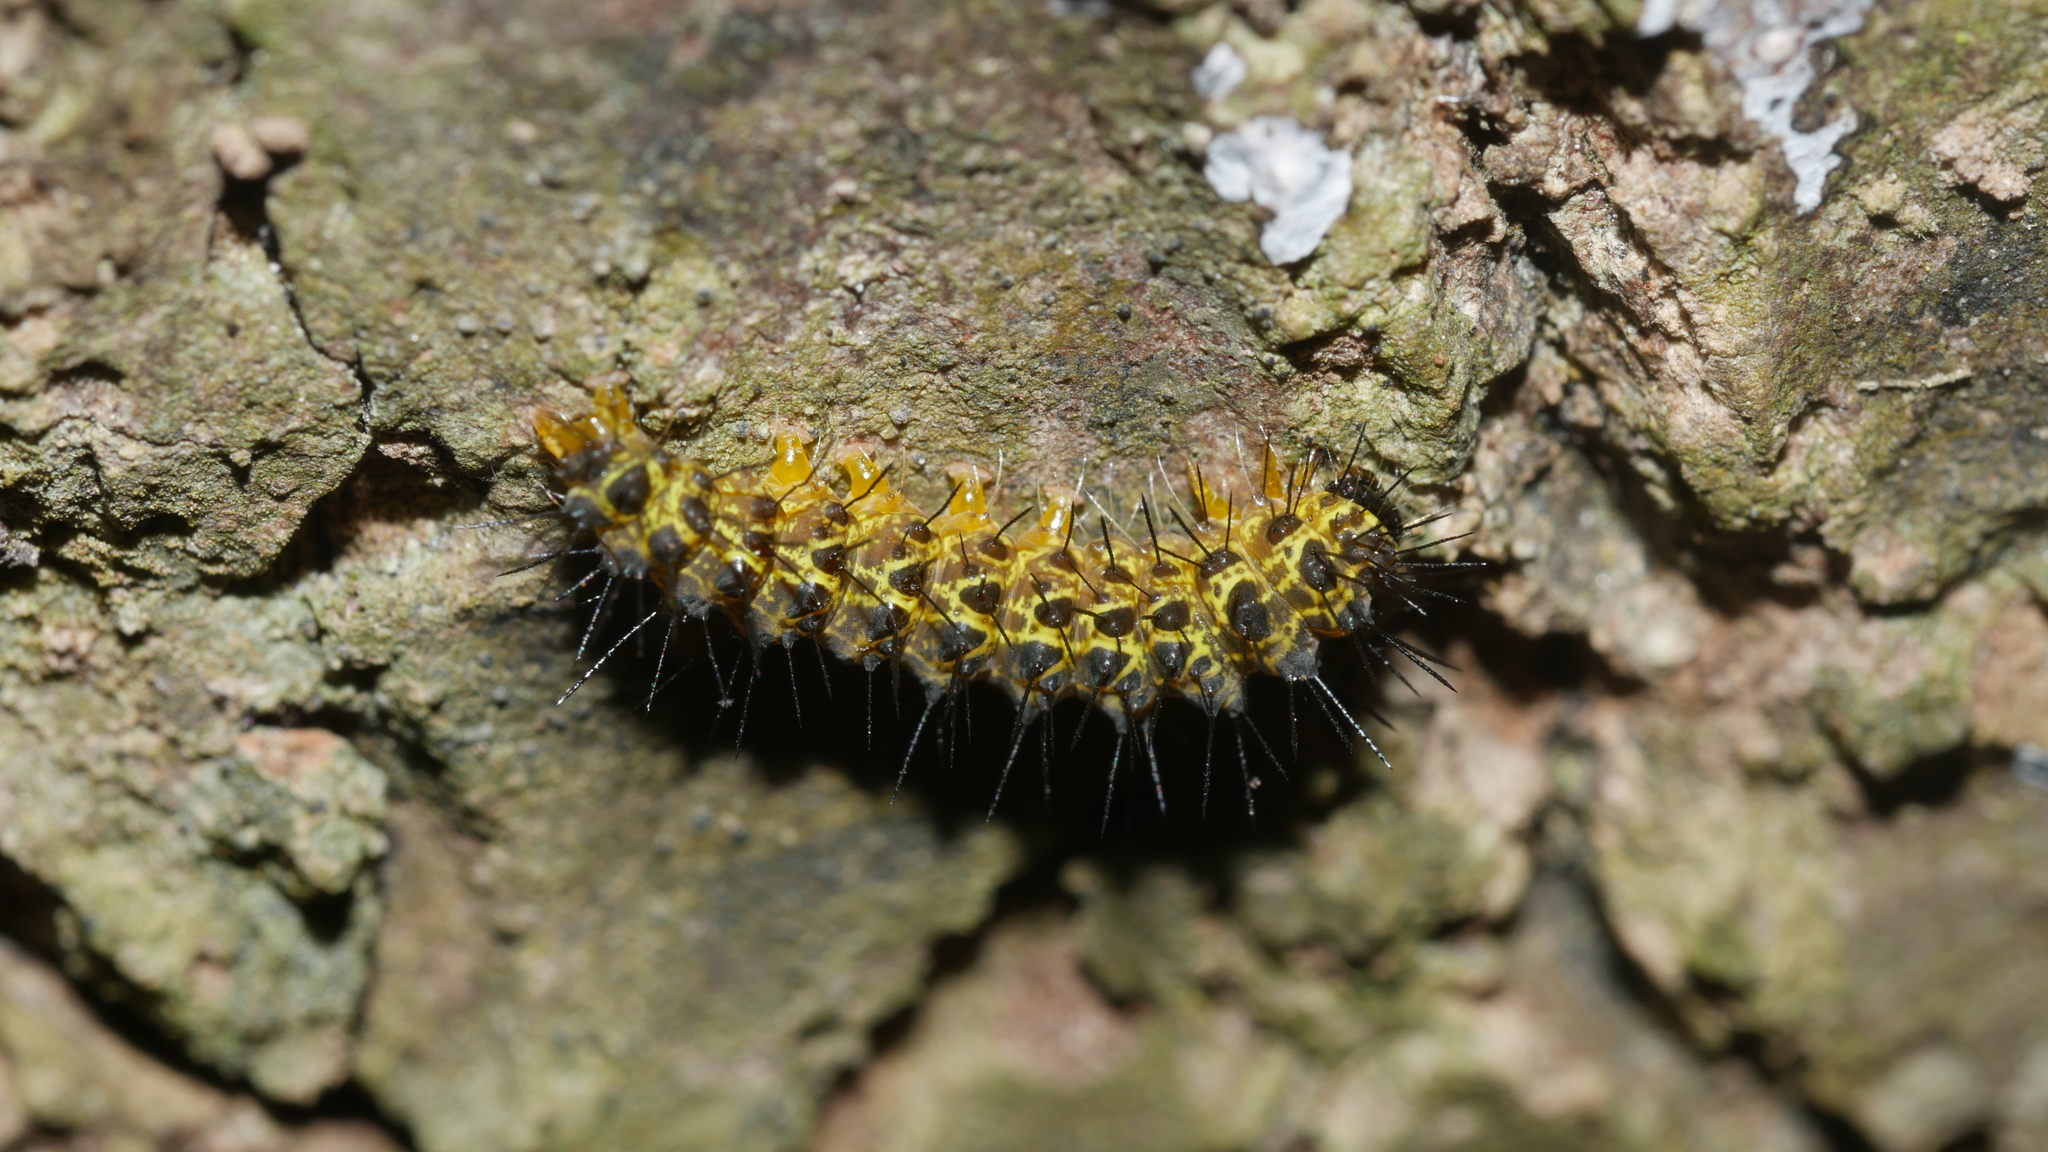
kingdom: Animalia
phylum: Arthropoda
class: Insecta
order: Lepidoptera
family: Erebidae
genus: Hypoprepia
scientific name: Hypoprepia miniata
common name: Scarlet-winged lichen moth
